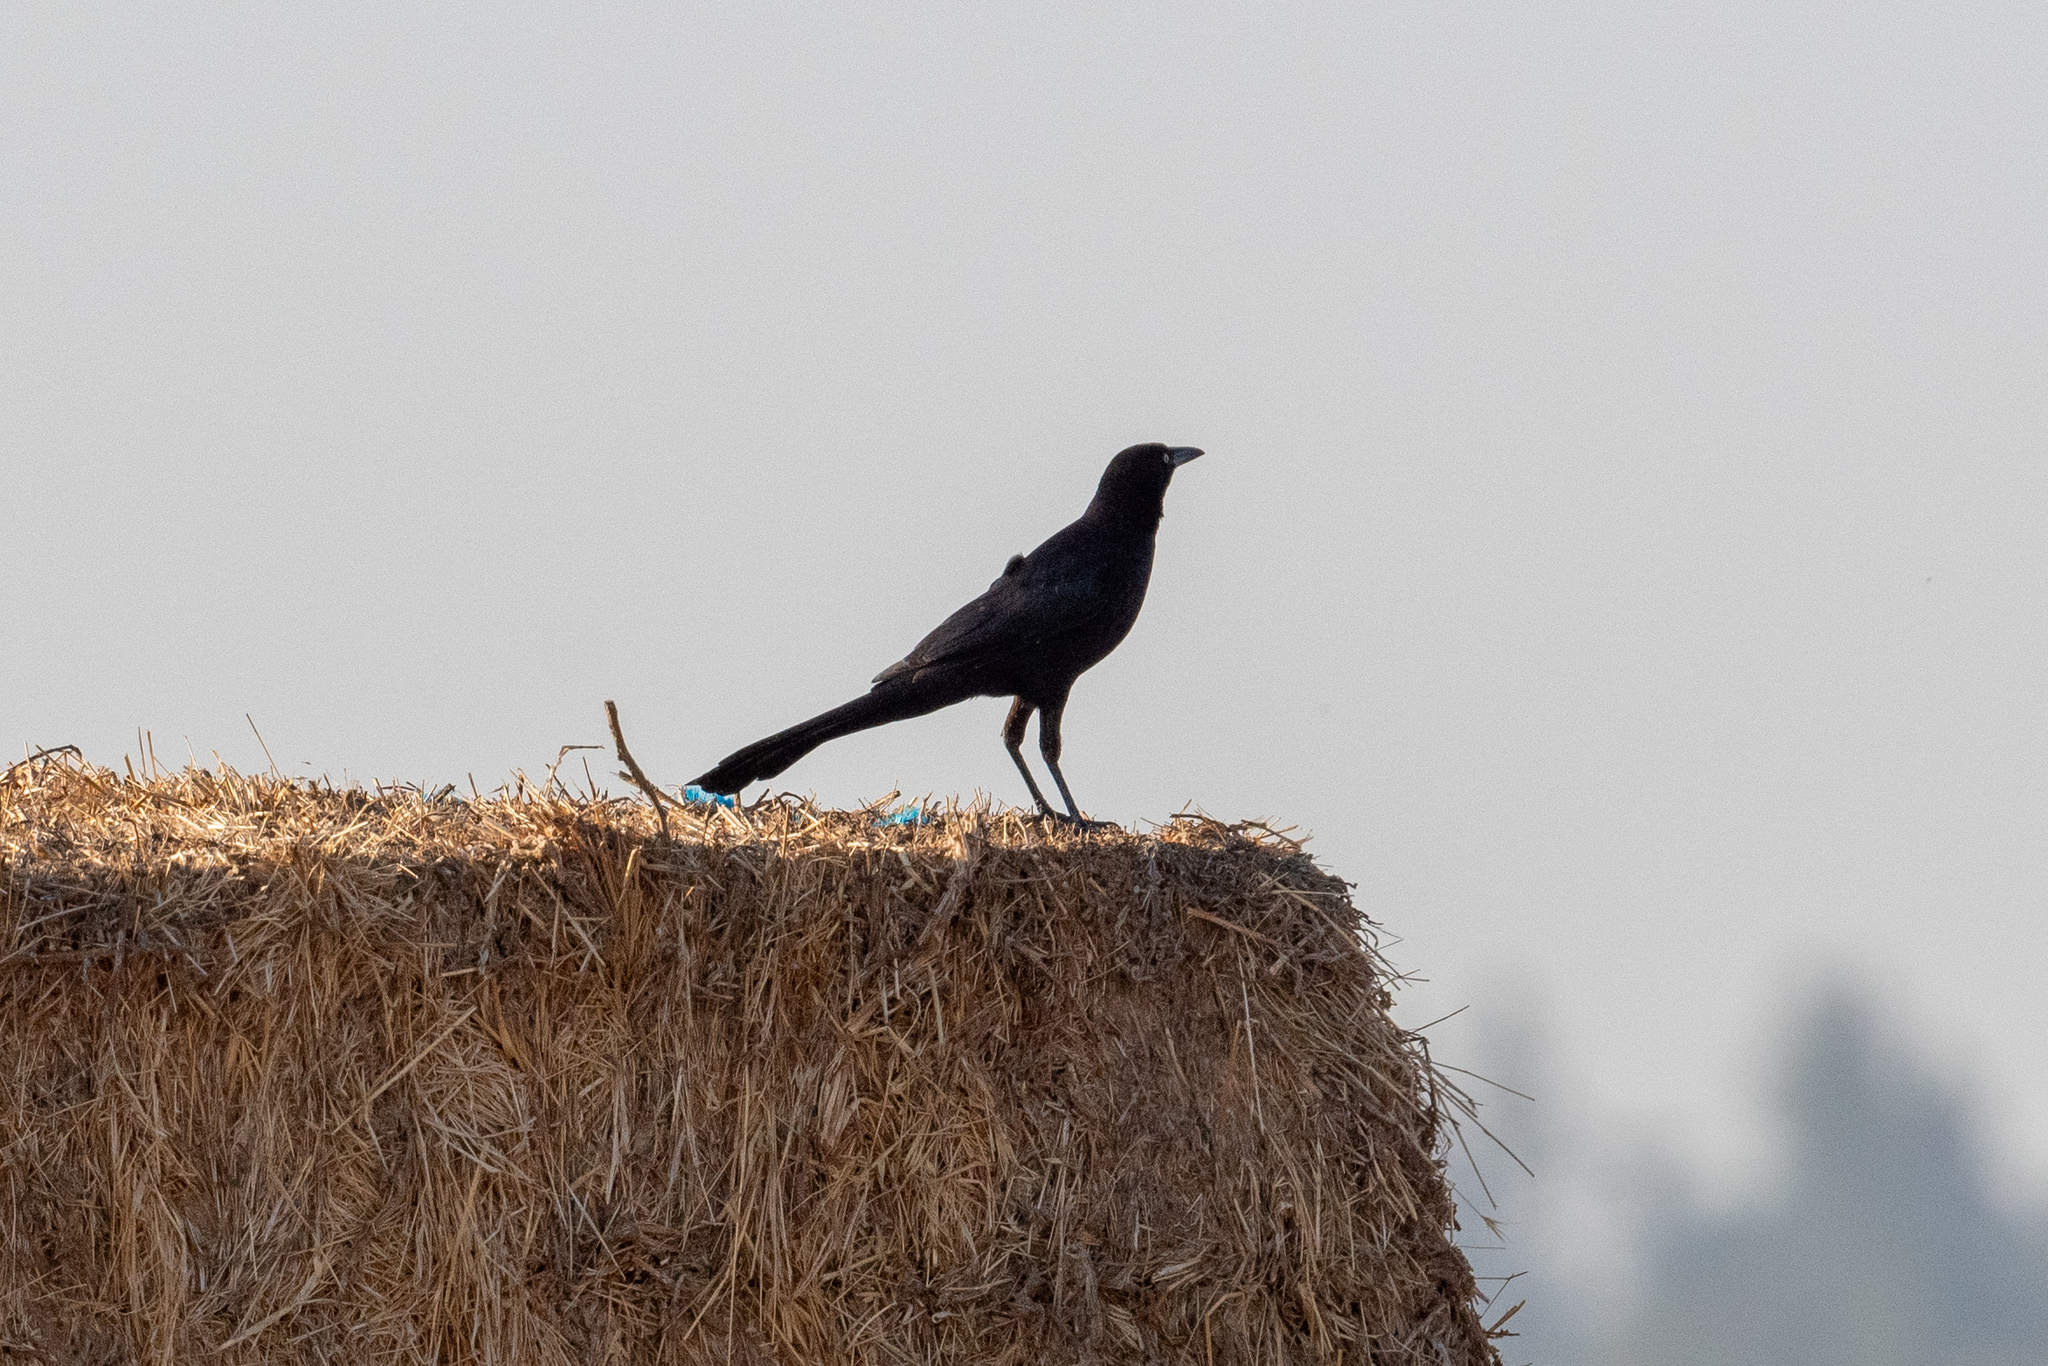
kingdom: Animalia
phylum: Chordata
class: Aves
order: Passeriformes
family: Icteridae
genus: Quiscalus
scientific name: Quiscalus mexicanus
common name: Great-tailed grackle
